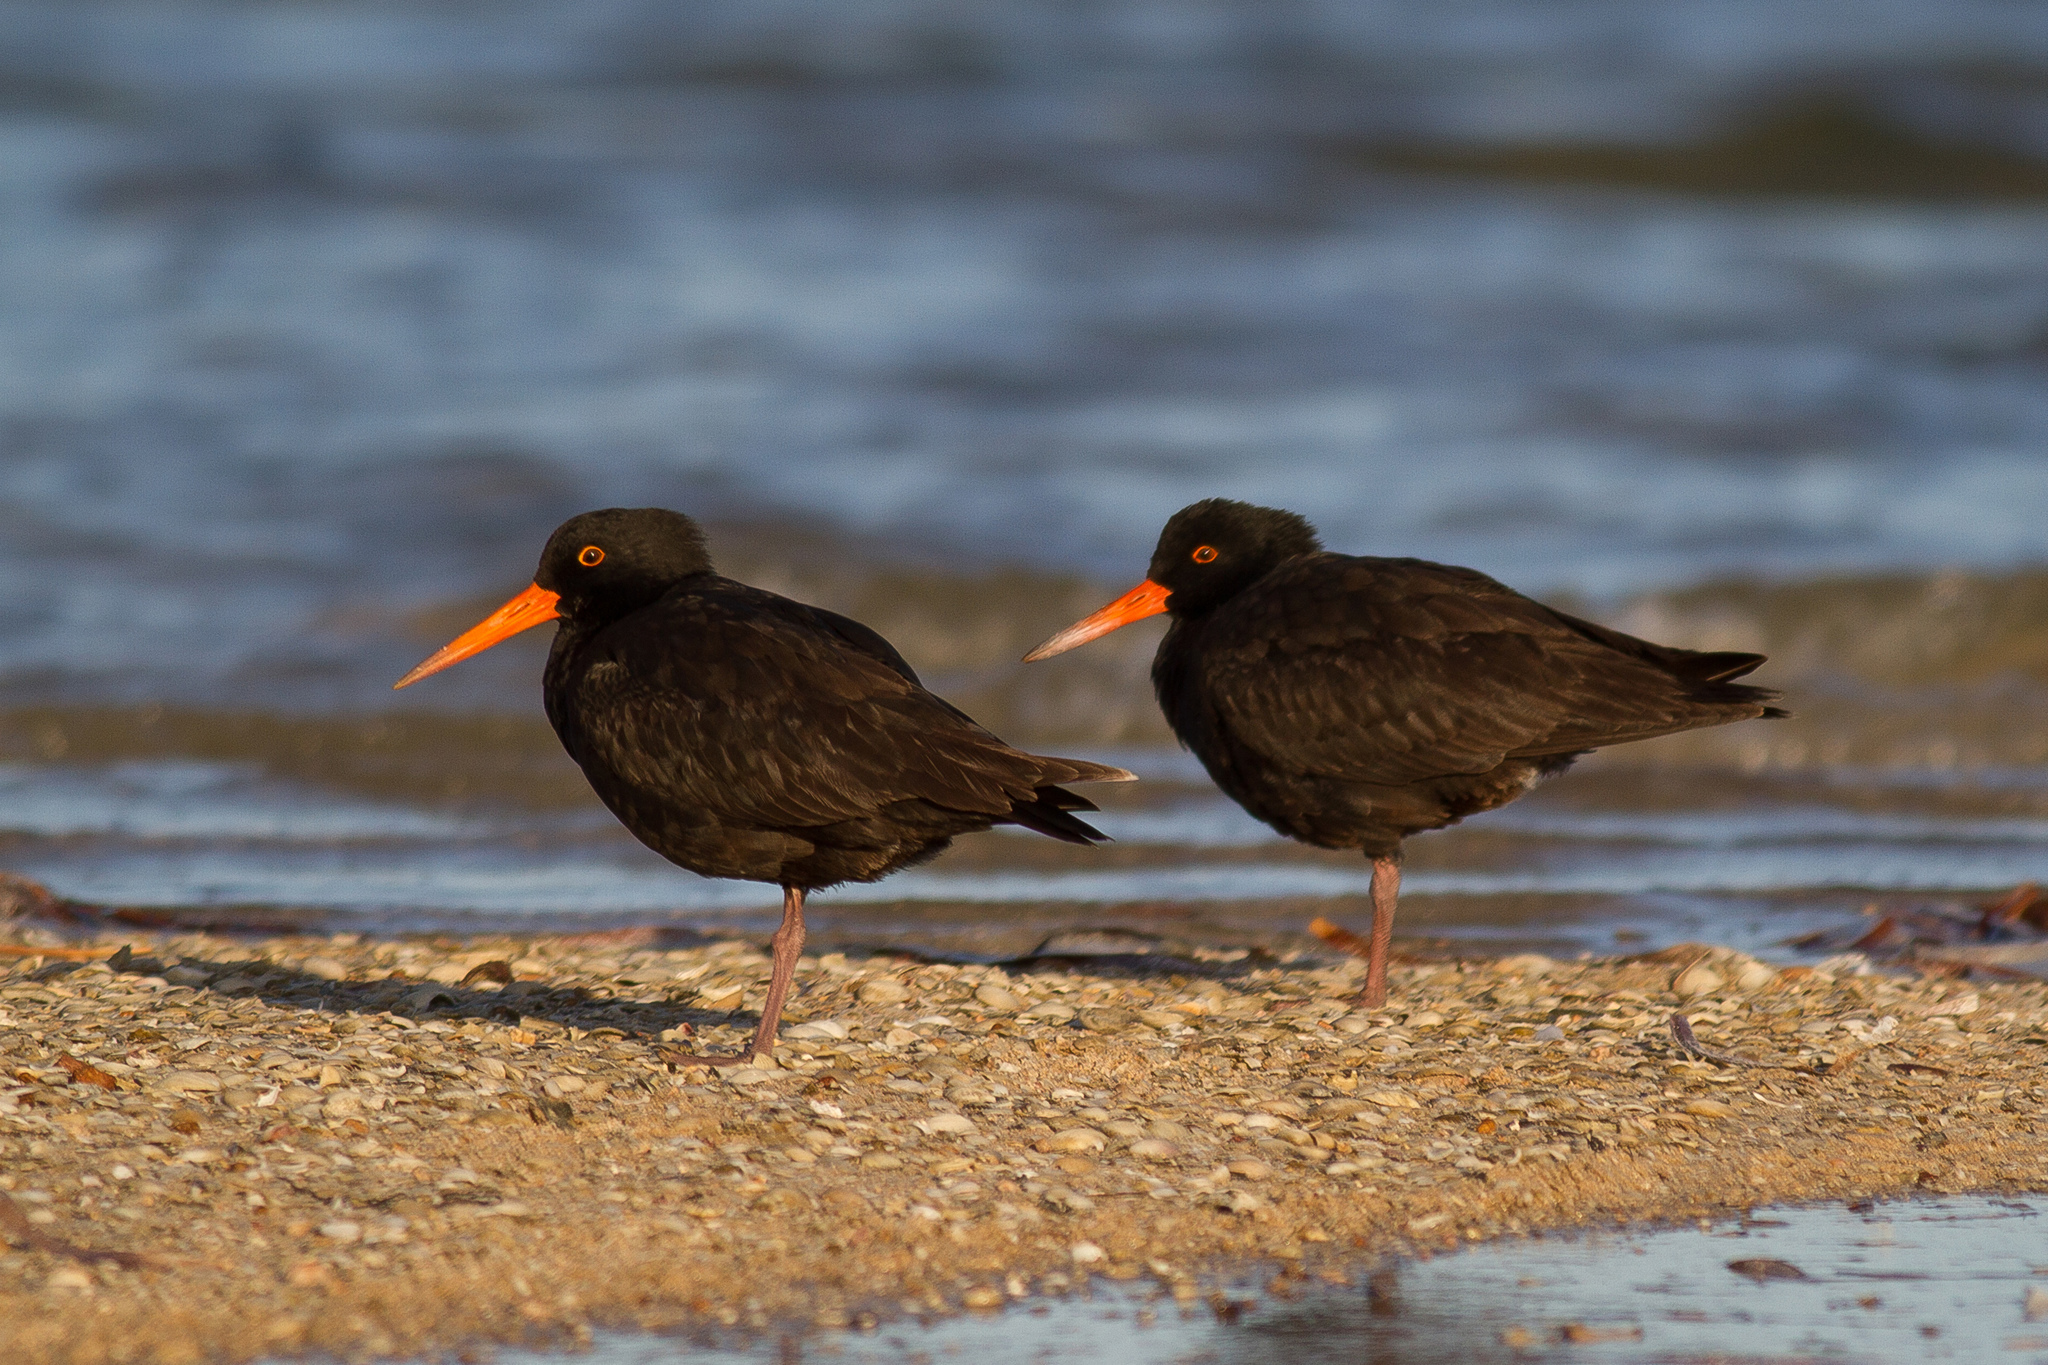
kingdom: Animalia
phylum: Chordata
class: Aves
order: Charadriiformes
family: Haematopodidae
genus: Haematopus
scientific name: Haematopus fuliginosus
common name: Sooty oystercatcher
